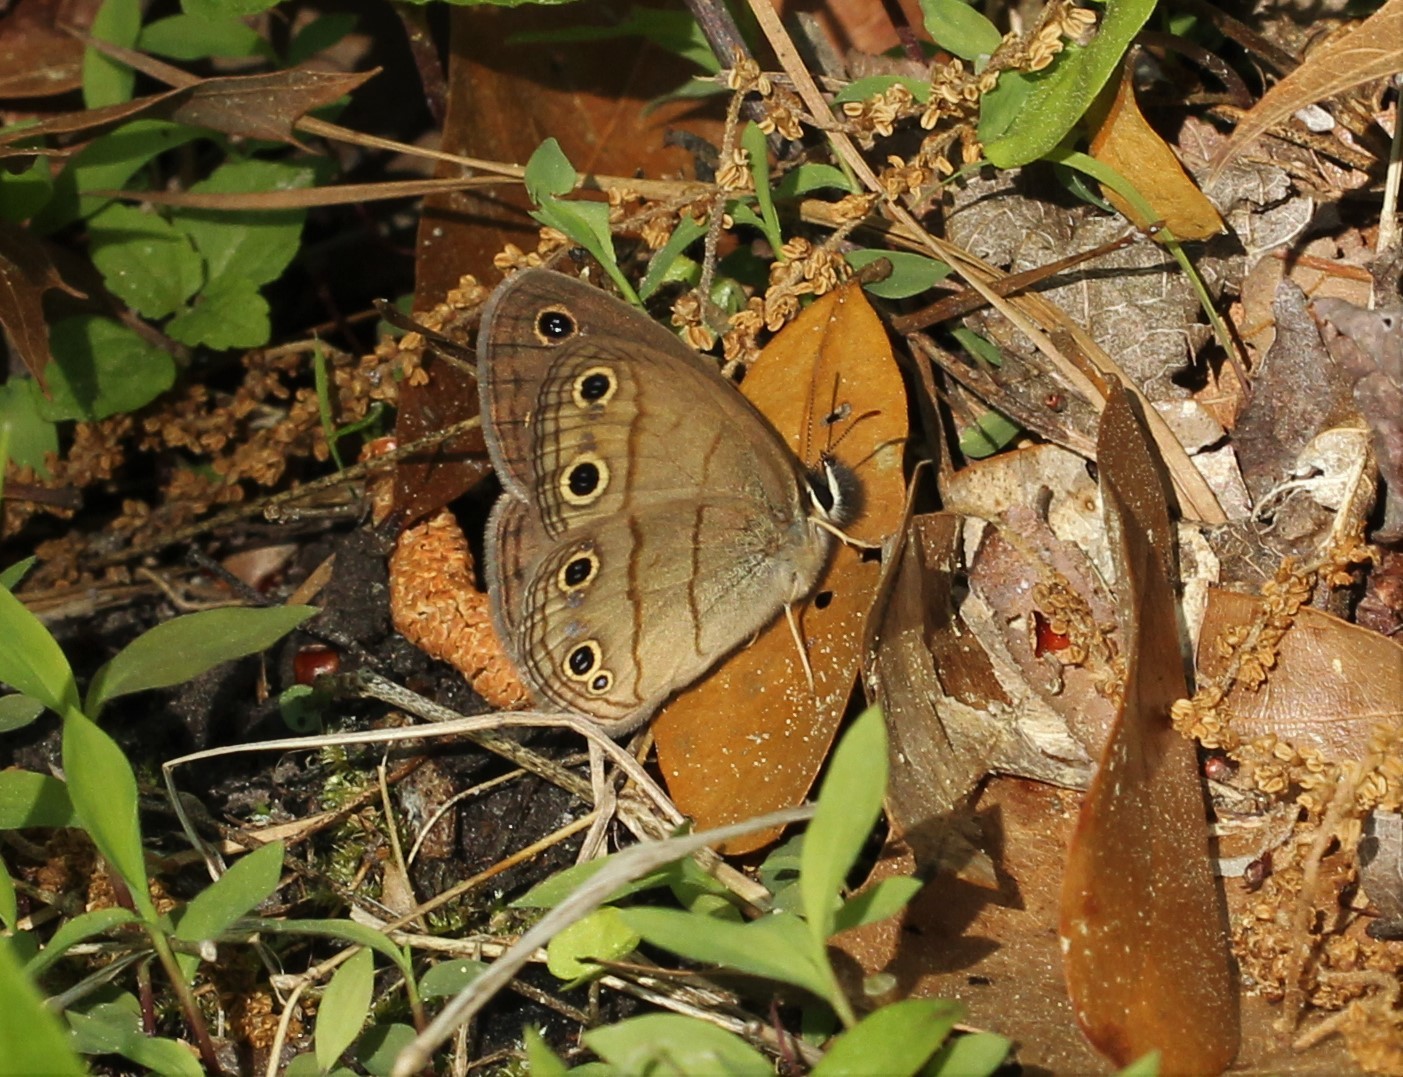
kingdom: Animalia
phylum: Arthropoda
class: Insecta
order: Lepidoptera
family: Nymphalidae
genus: Euptychia
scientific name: Euptychia cymela
